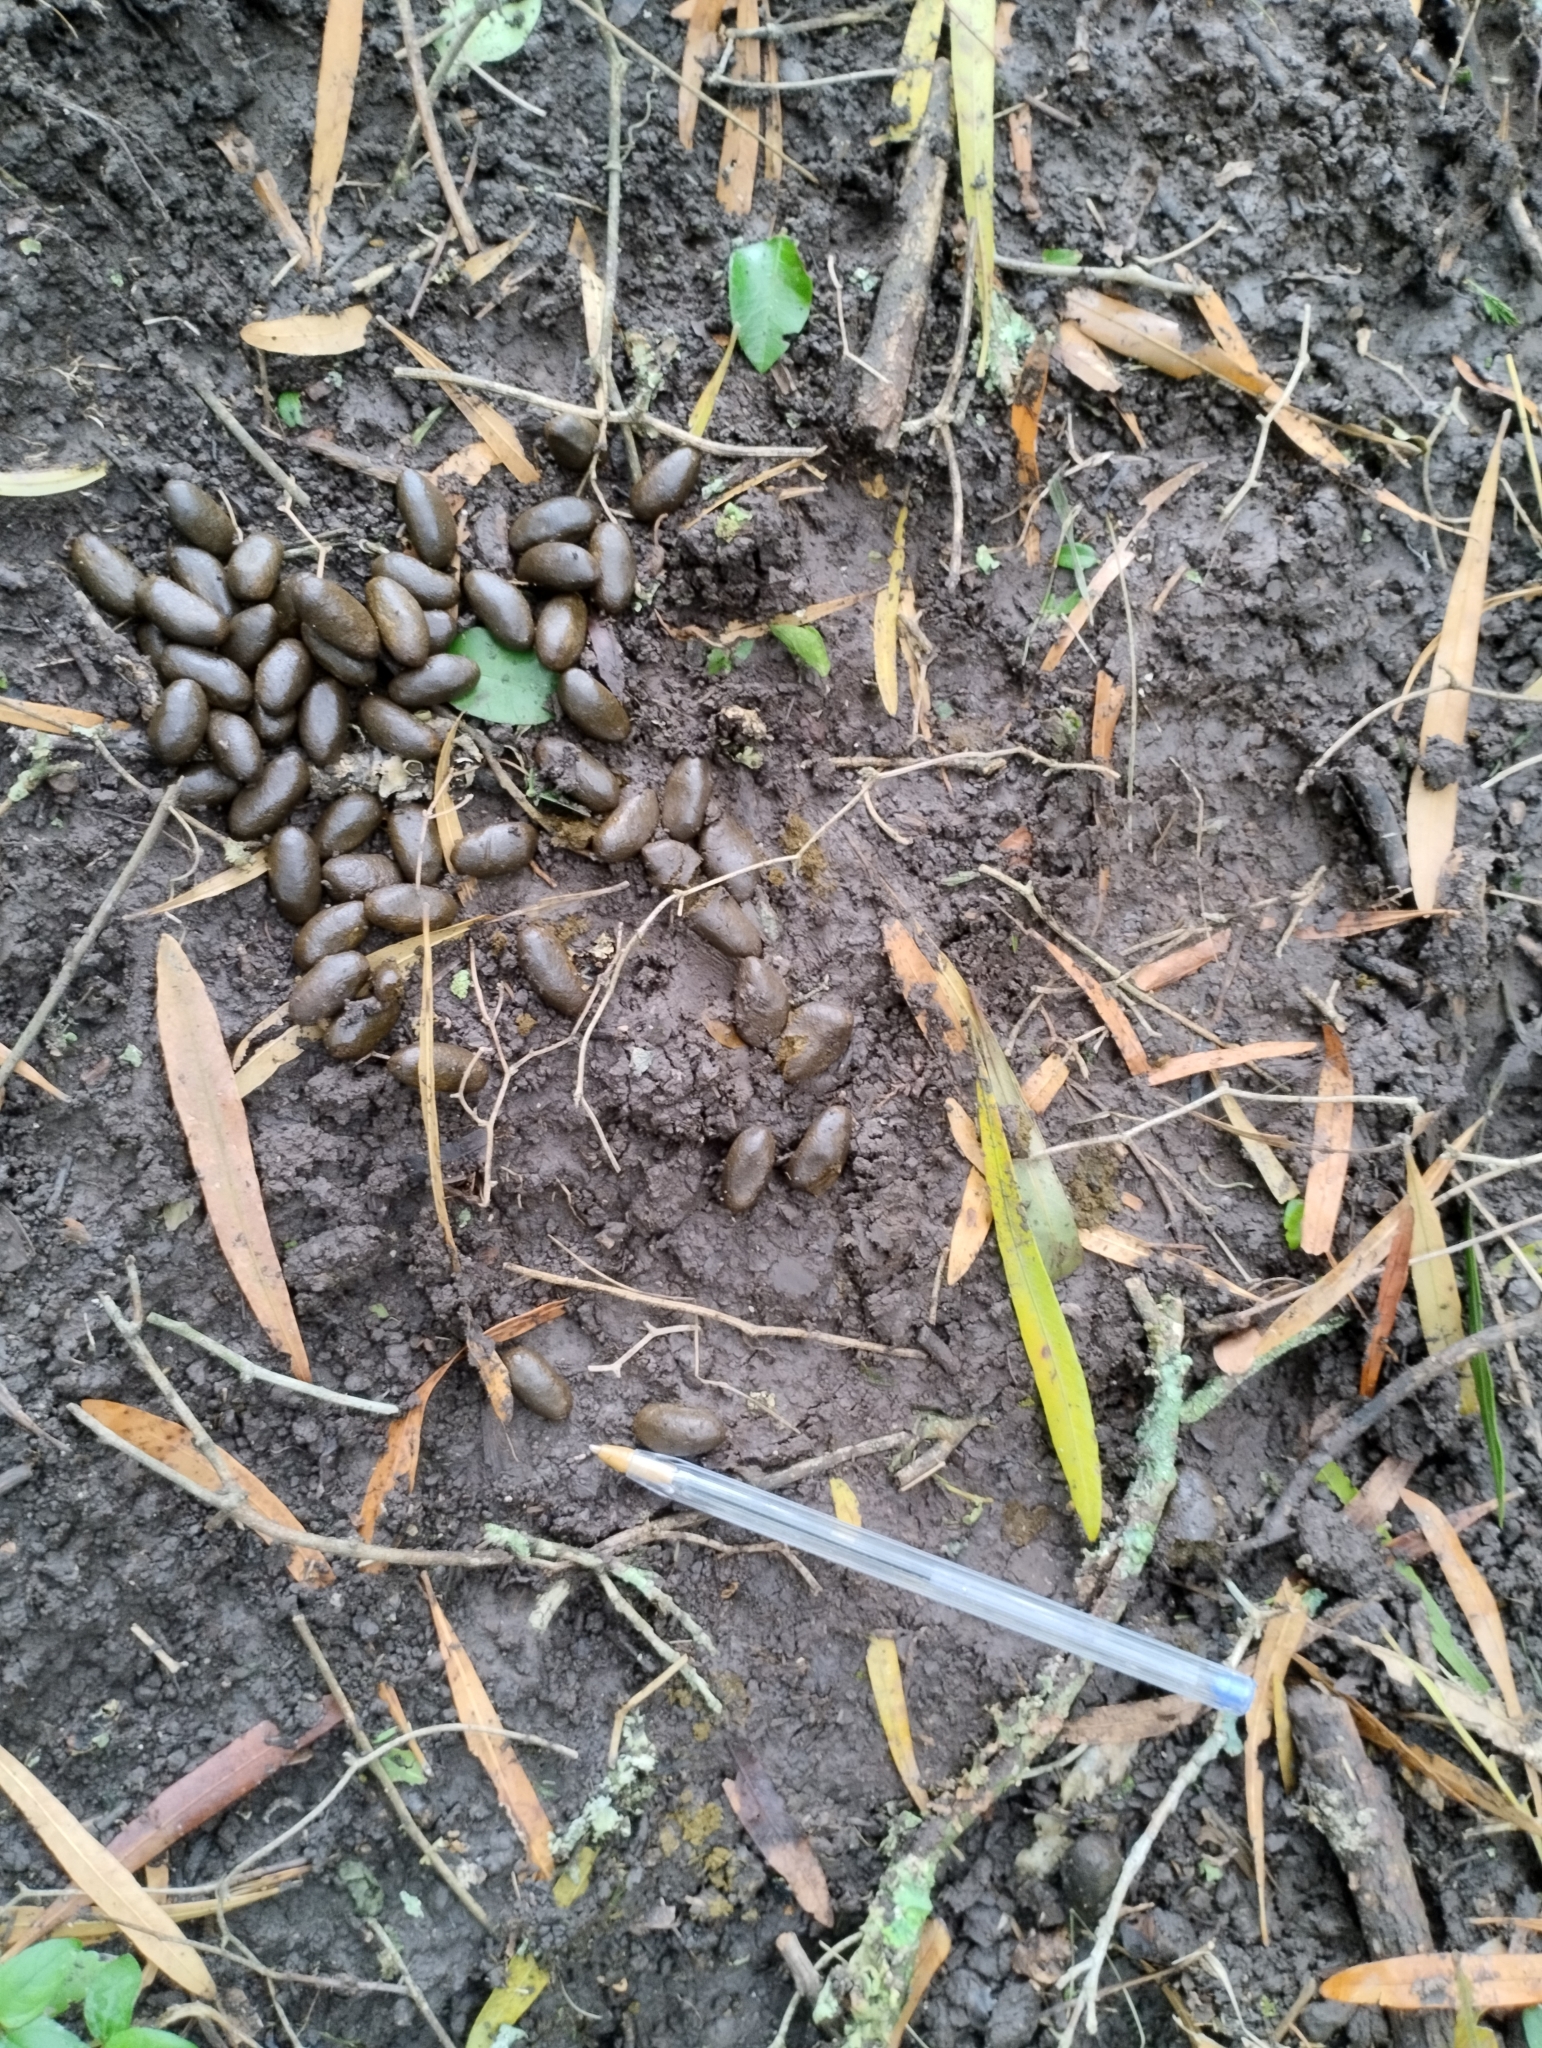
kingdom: Animalia
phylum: Chordata
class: Mammalia
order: Rodentia
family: Caviidae
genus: Hydrochoerus
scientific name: Hydrochoerus hydrochaeris
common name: Capybara
